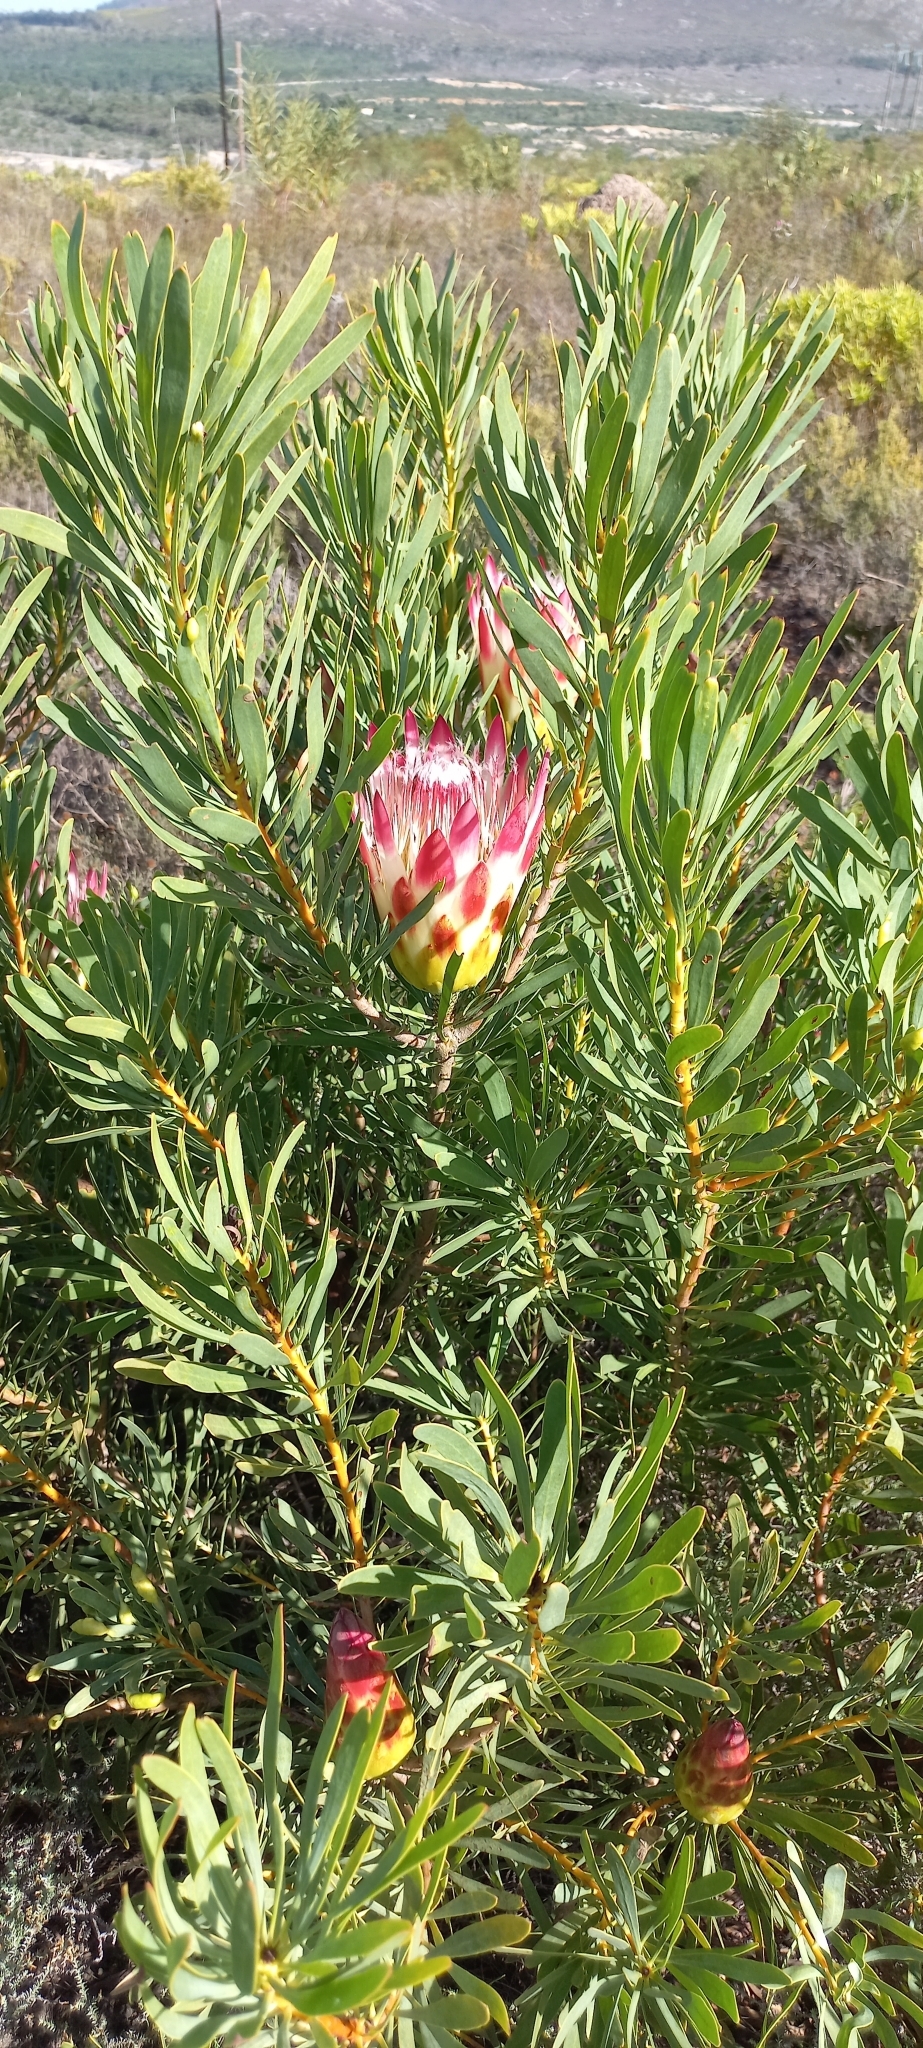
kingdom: Plantae
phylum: Tracheophyta
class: Magnoliopsida
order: Proteales
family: Proteaceae
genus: Protea
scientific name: Protea repens
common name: Sugarbush
